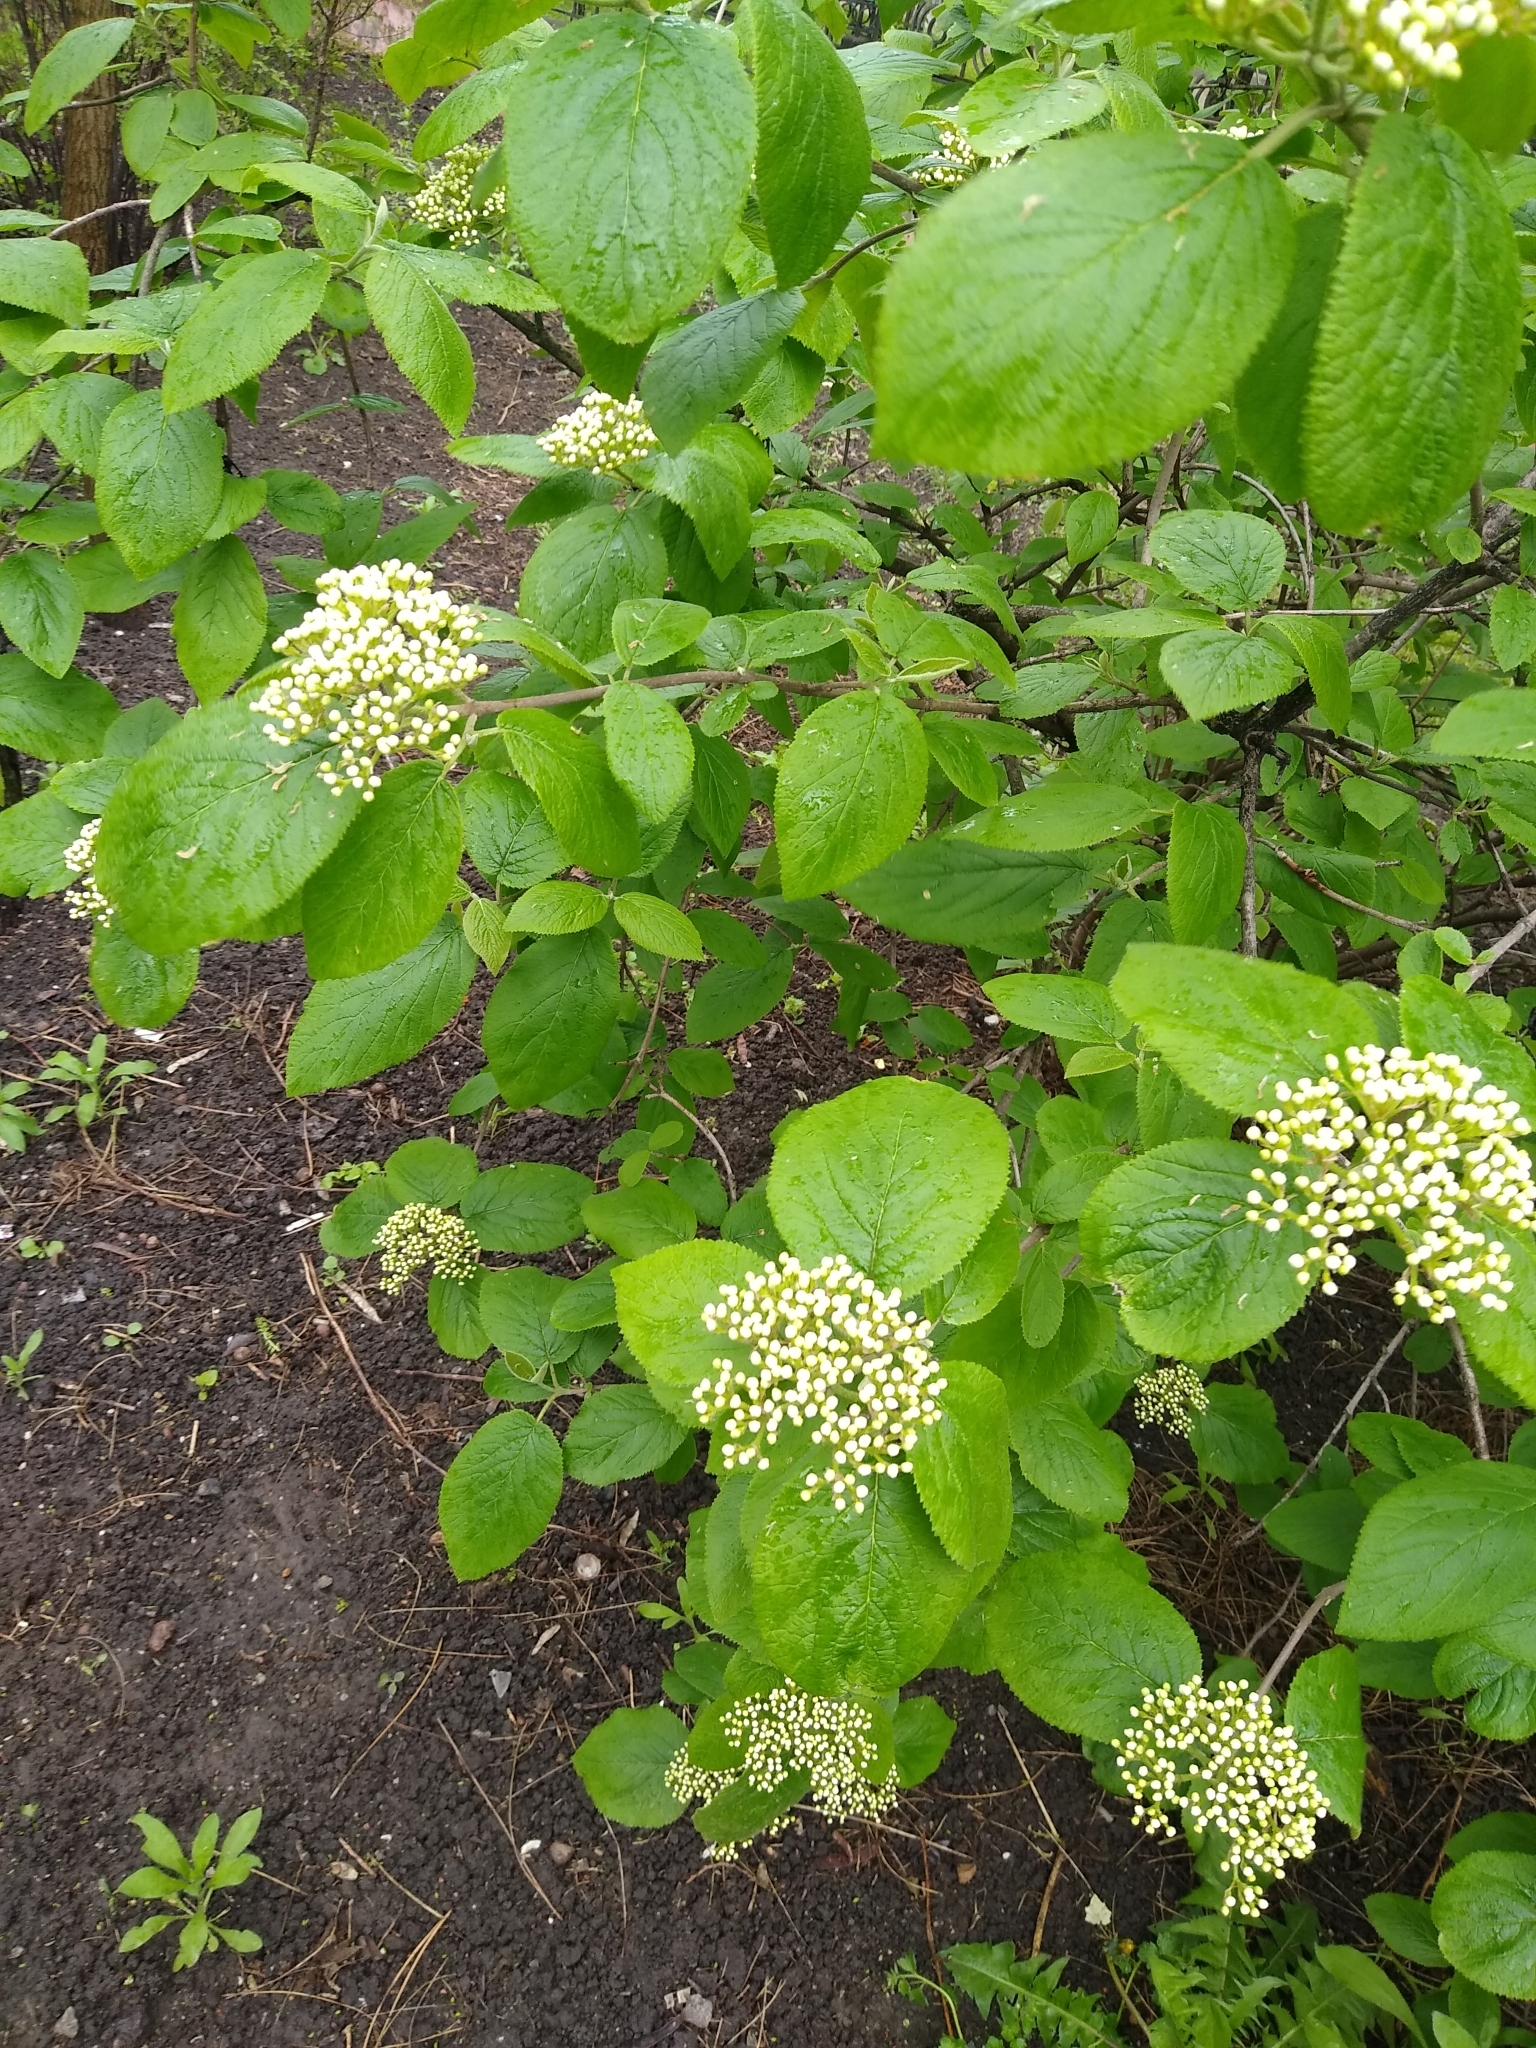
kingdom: Plantae
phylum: Tracheophyta
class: Magnoliopsida
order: Dipsacales
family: Viburnaceae
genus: Viburnum
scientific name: Viburnum lantana
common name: Wayfaring tree
